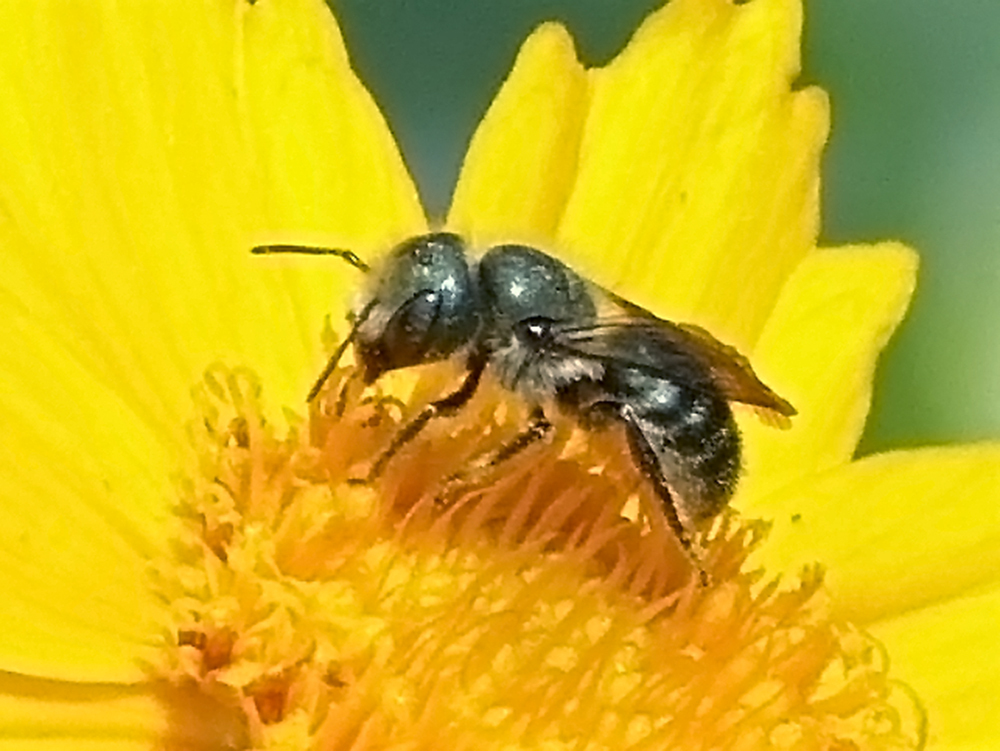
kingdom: Animalia
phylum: Arthropoda
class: Insecta
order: Hymenoptera
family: Megachilidae
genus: Osmia
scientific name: Osmia georgica
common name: Georgia mason
